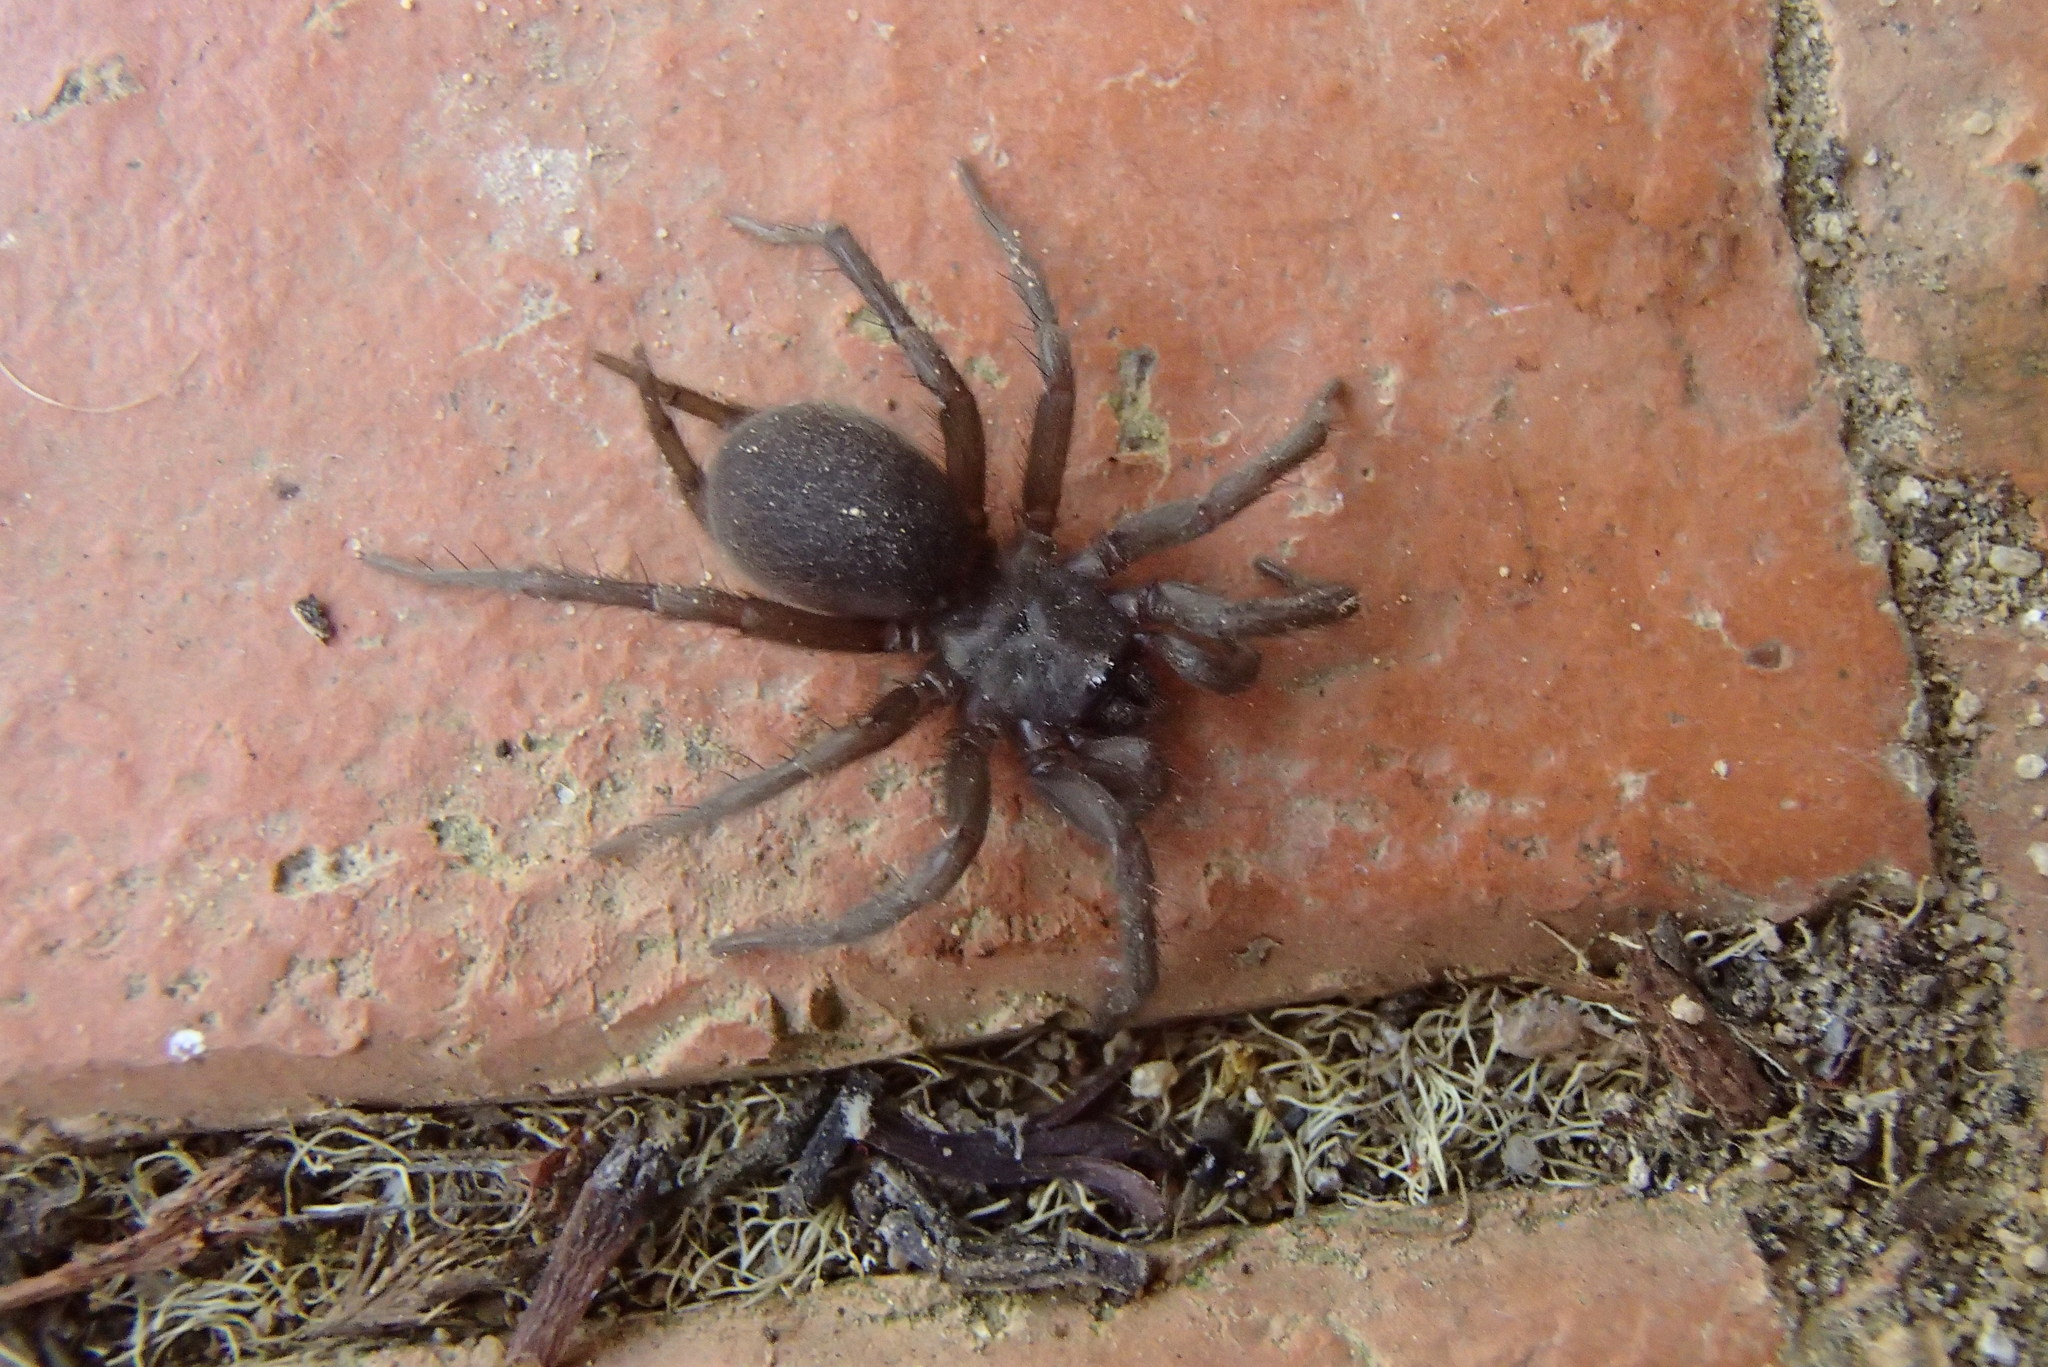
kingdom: Animalia
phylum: Arthropoda
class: Arachnida
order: Araneae
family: Euagridae
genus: Namirea
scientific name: Namirea fallax
